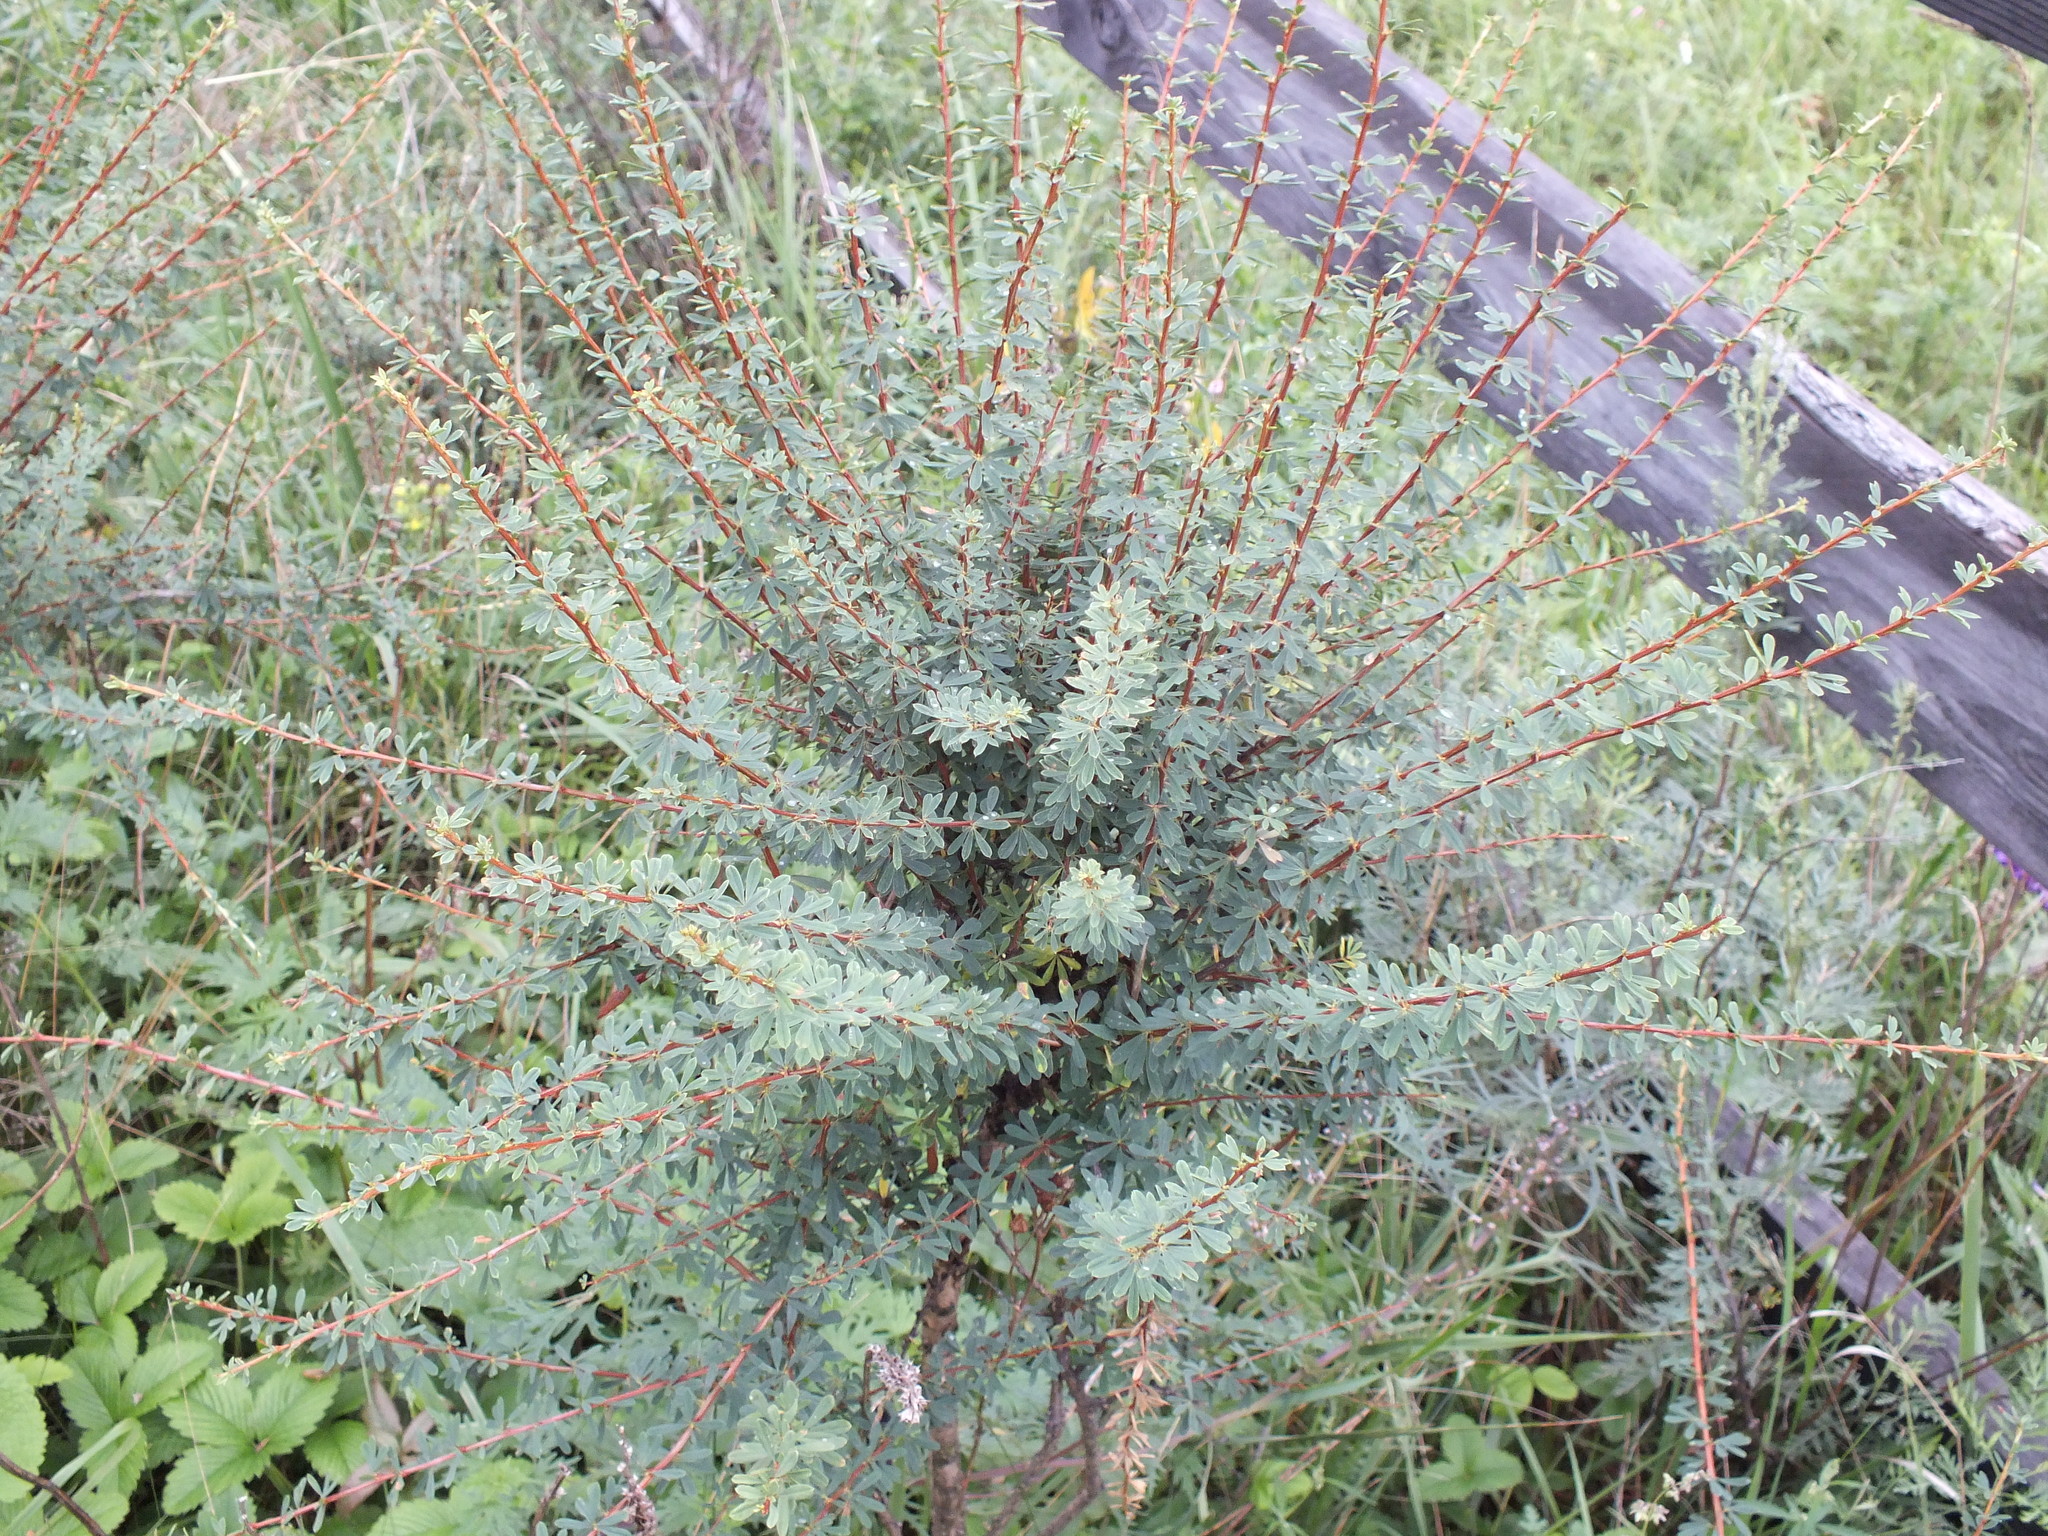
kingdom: Plantae
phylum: Tracheophyta
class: Magnoliopsida
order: Fabales
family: Fabaceae
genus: Caragana
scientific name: Caragana pygmaea
